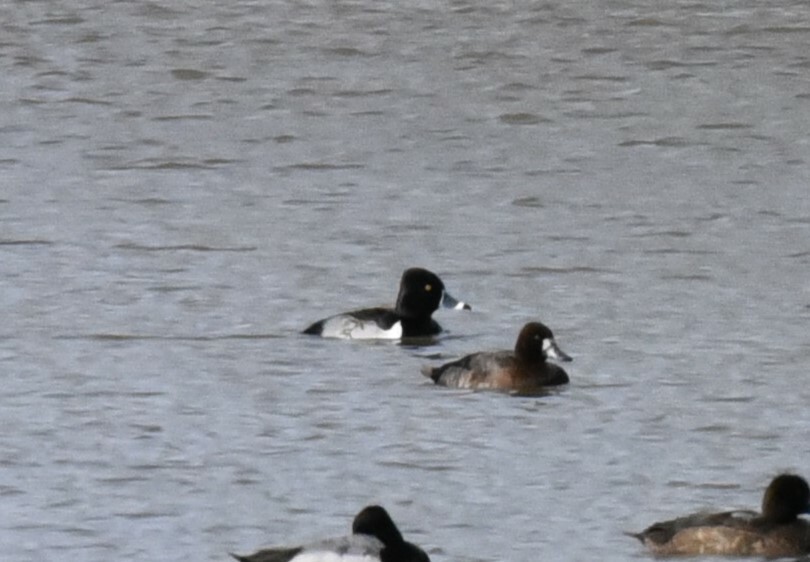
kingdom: Animalia
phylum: Chordata
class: Aves
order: Anseriformes
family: Anatidae
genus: Aythya
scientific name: Aythya collaris
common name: Ring-necked duck
